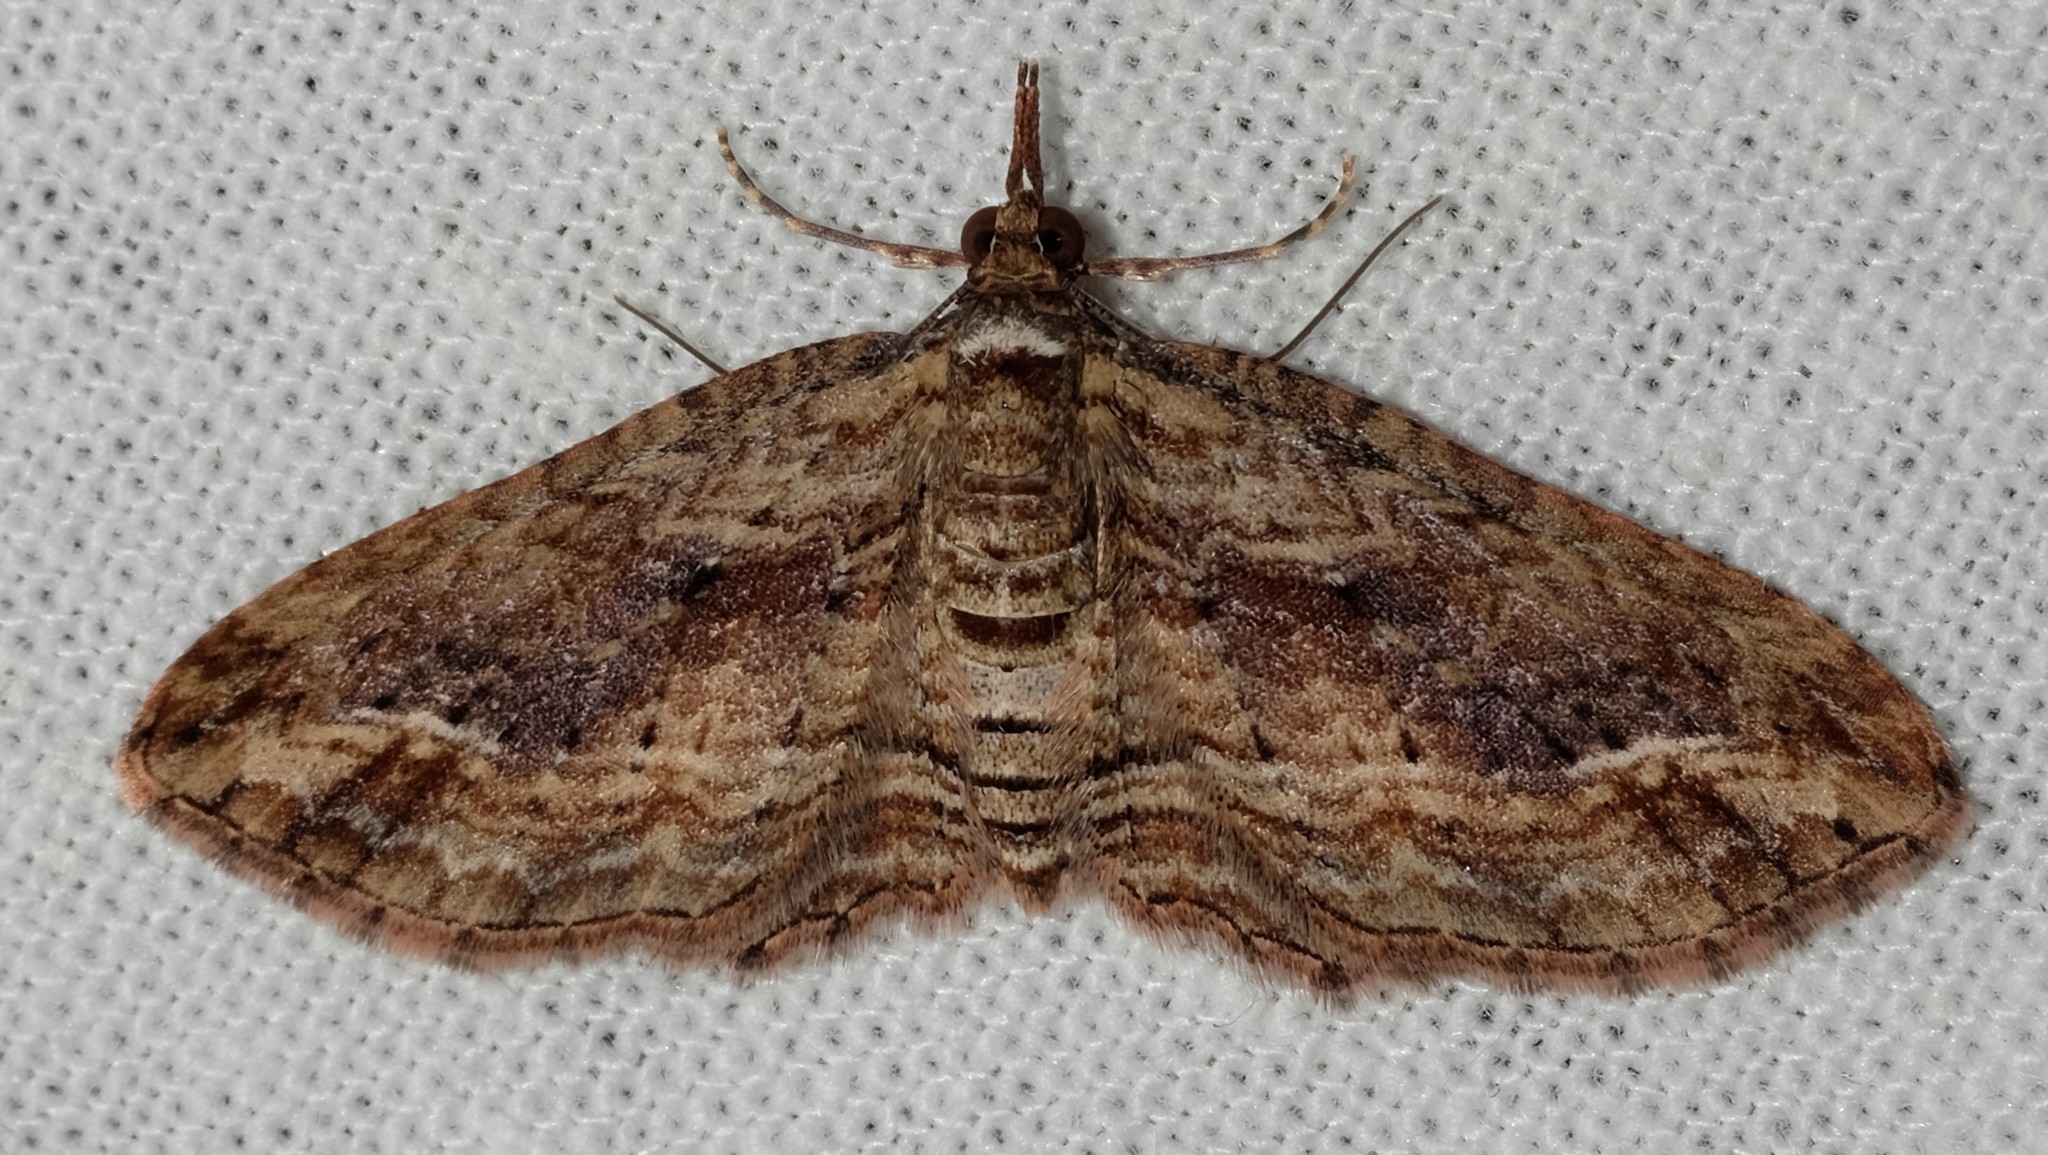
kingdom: Animalia
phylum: Arthropoda
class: Insecta
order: Lepidoptera
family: Geometridae
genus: Chloroclystis
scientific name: Chloroclystis filata
